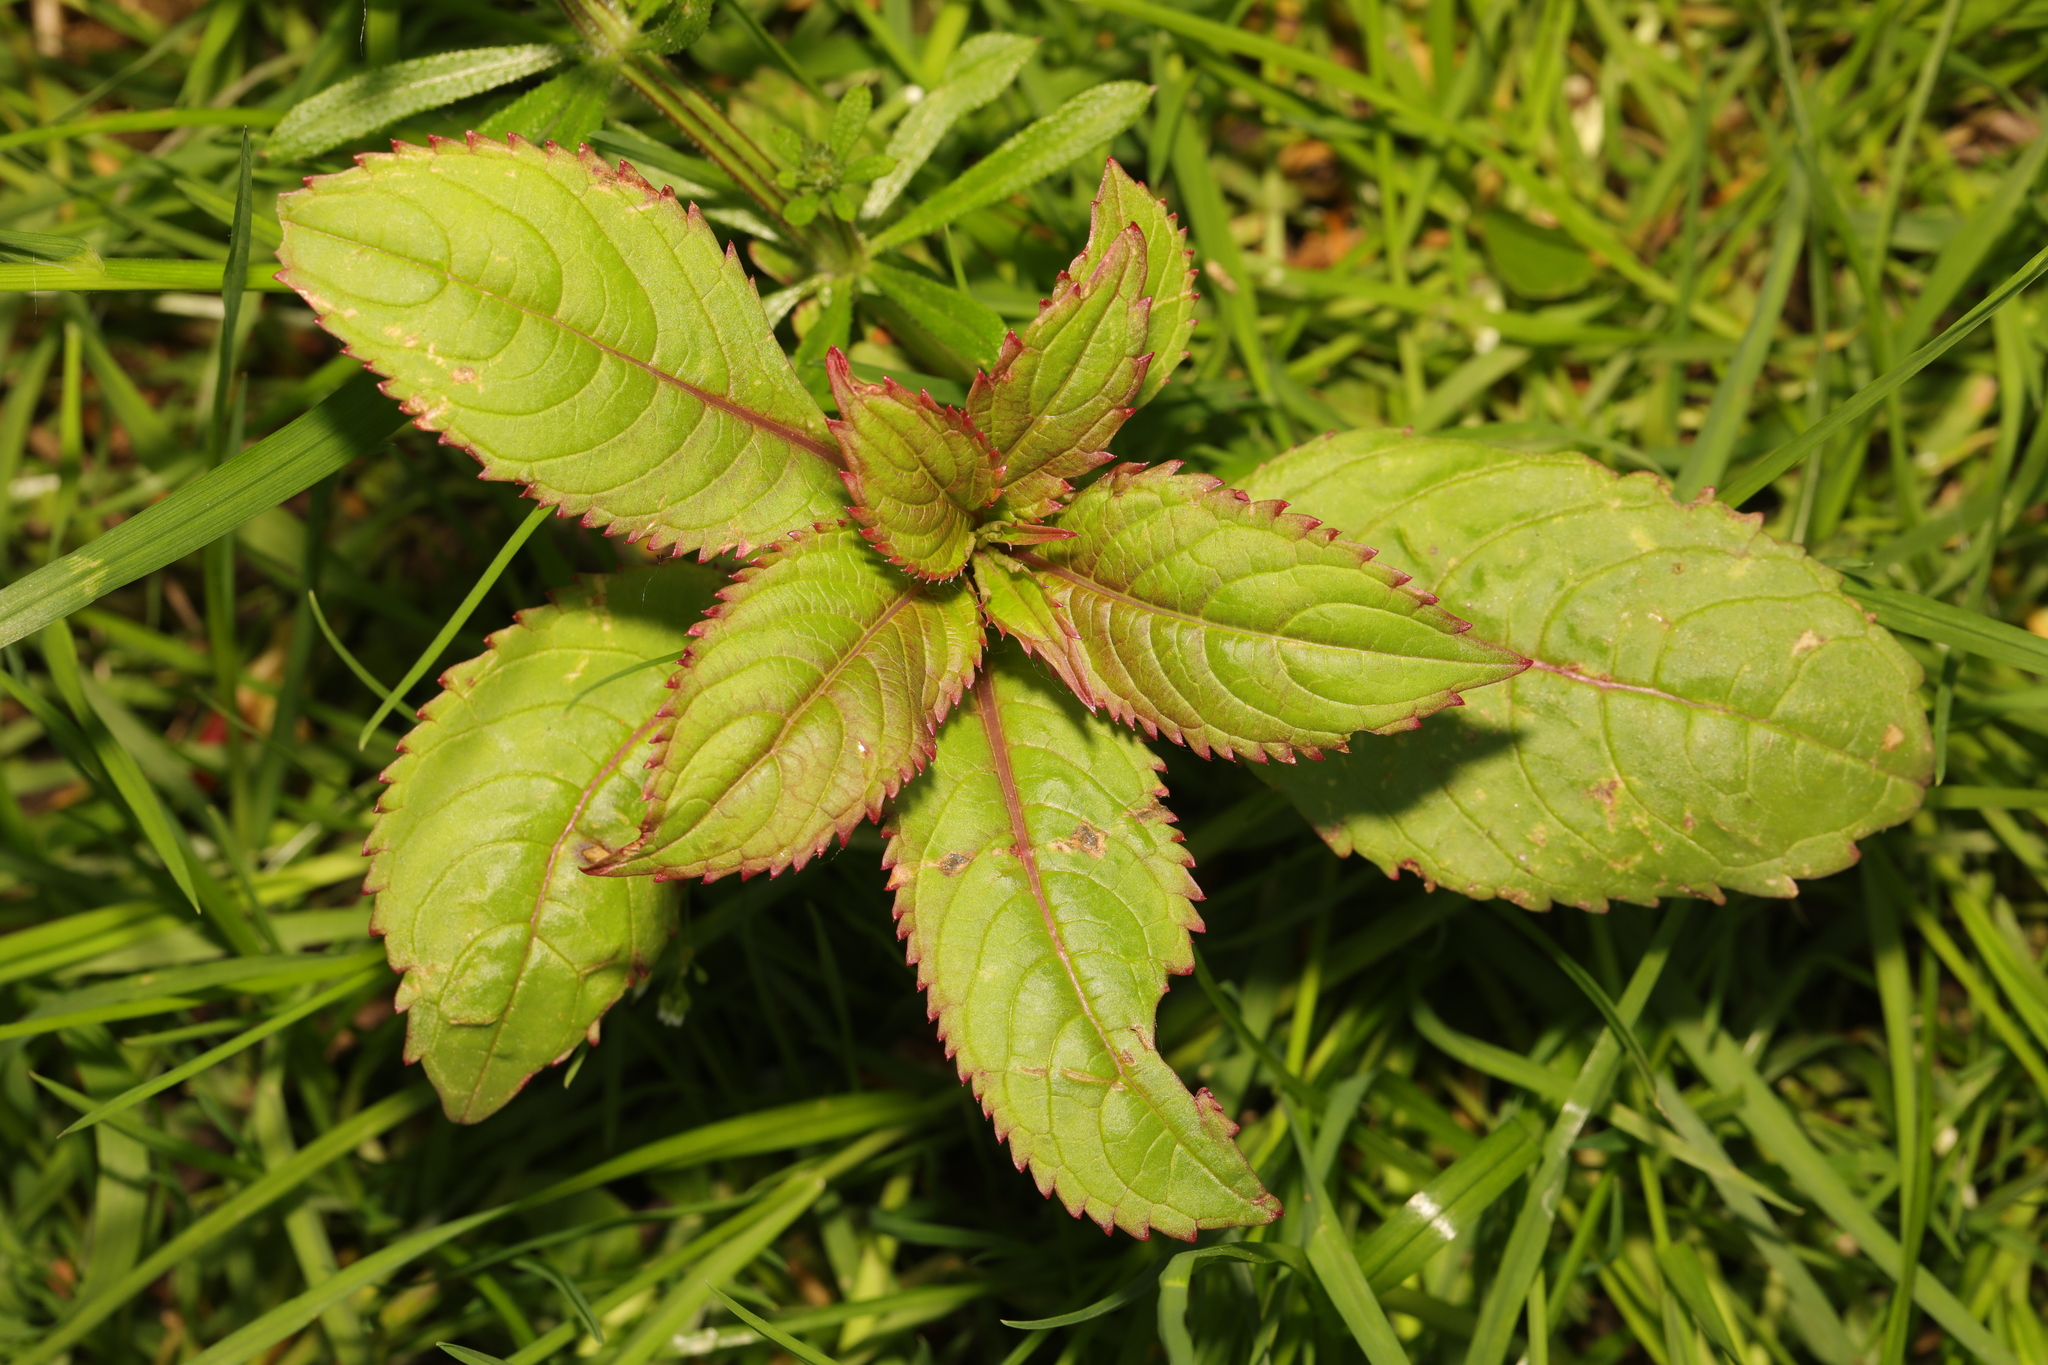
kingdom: Plantae
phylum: Tracheophyta
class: Magnoliopsida
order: Ericales
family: Balsaminaceae
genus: Impatiens
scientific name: Impatiens glandulifera
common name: Himalayan balsam
